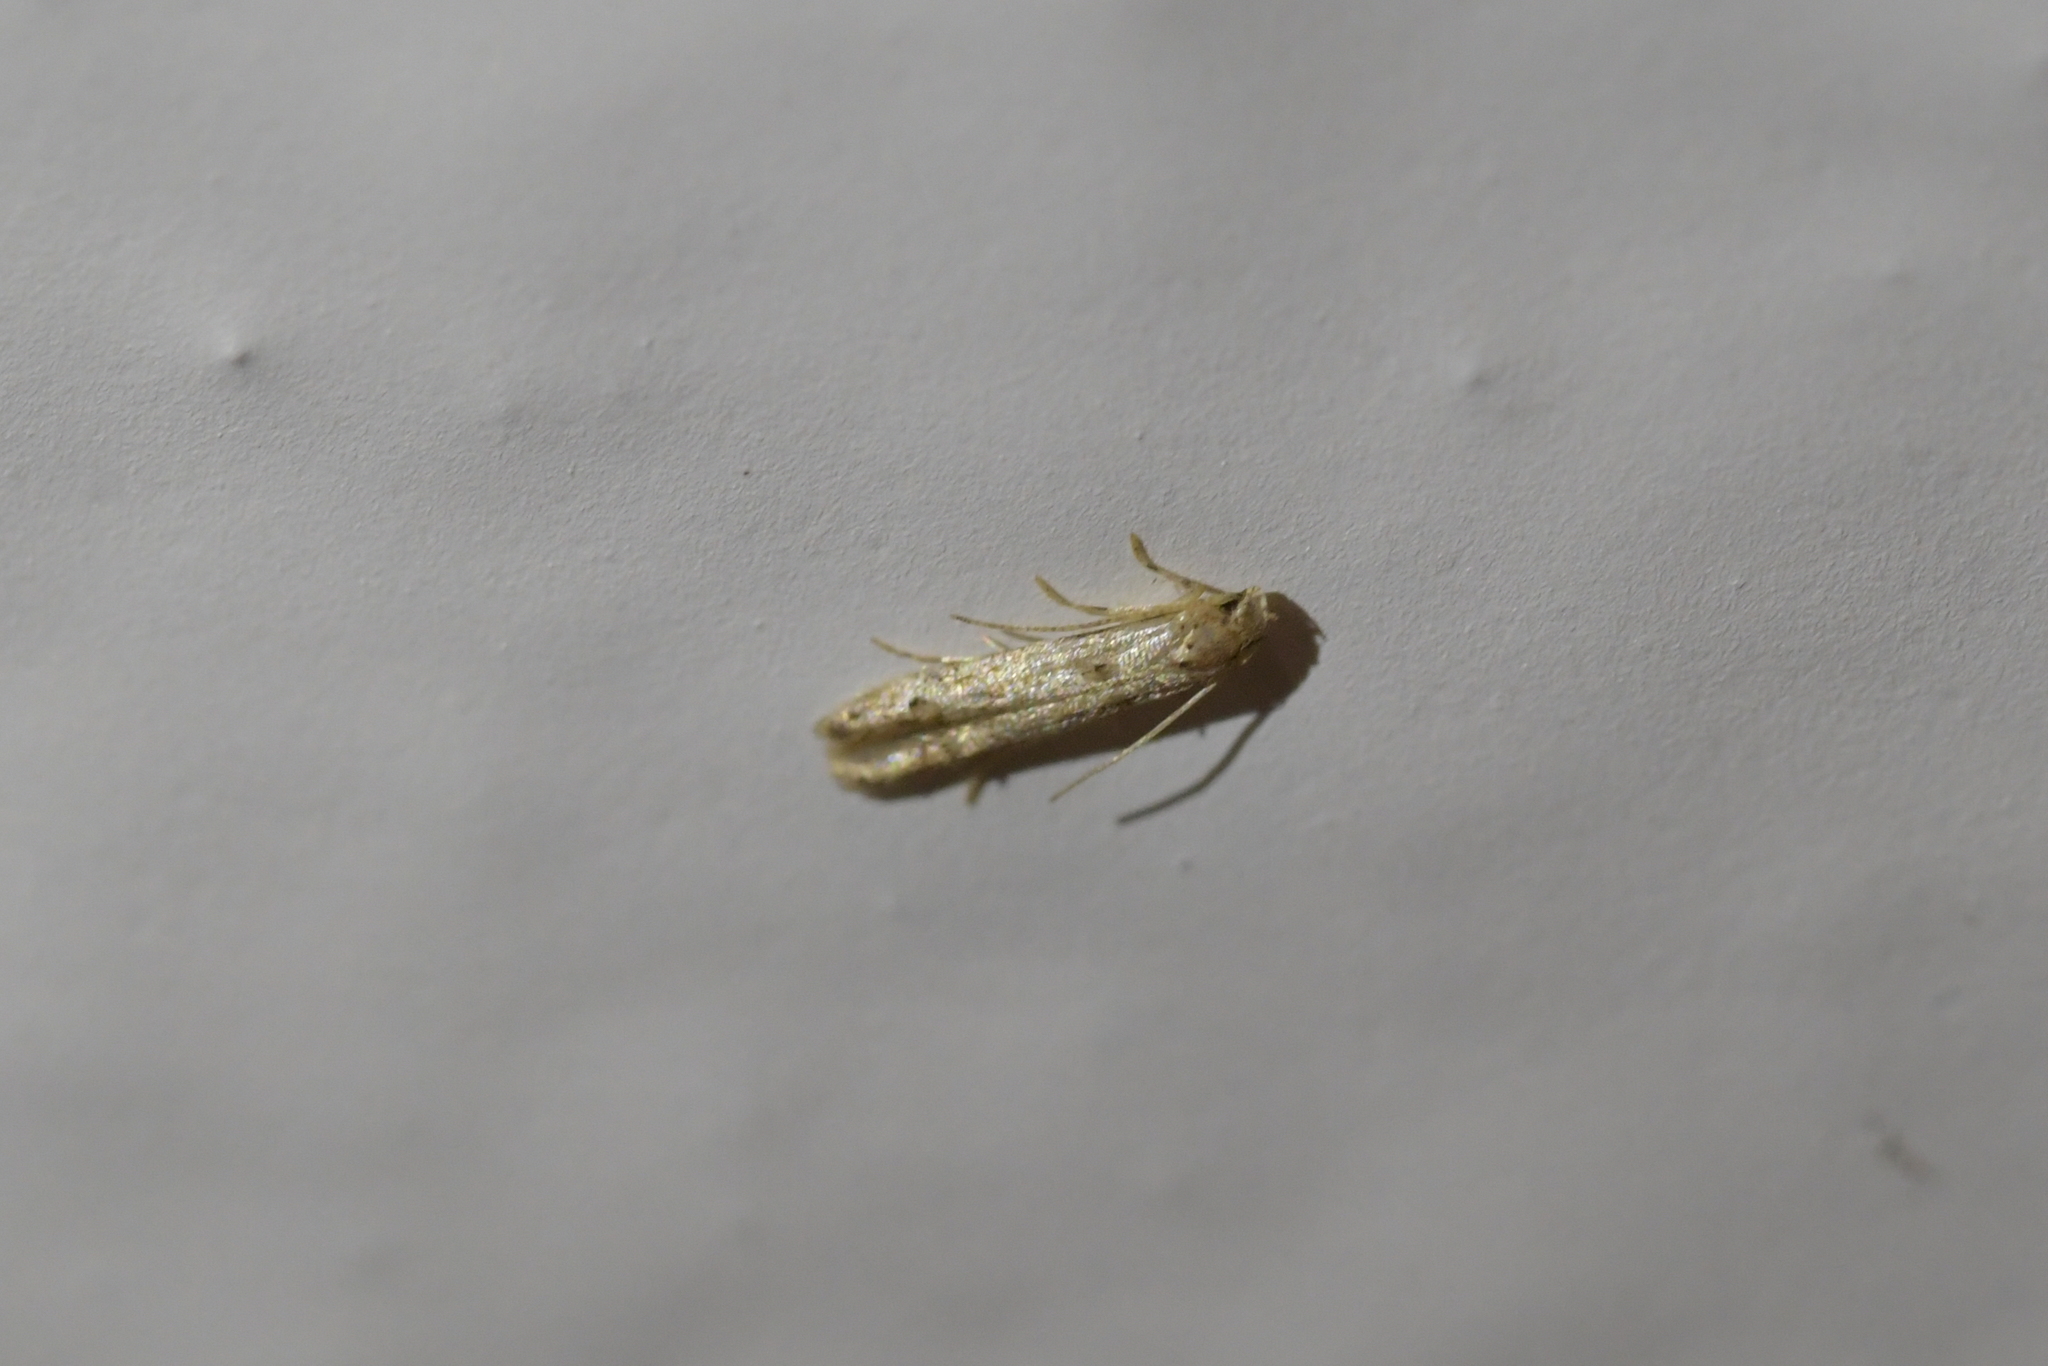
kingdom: Animalia
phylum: Arthropoda
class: Insecta
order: Lepidoptera
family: Elachistidae
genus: Microcolona
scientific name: Microcolona limodes
